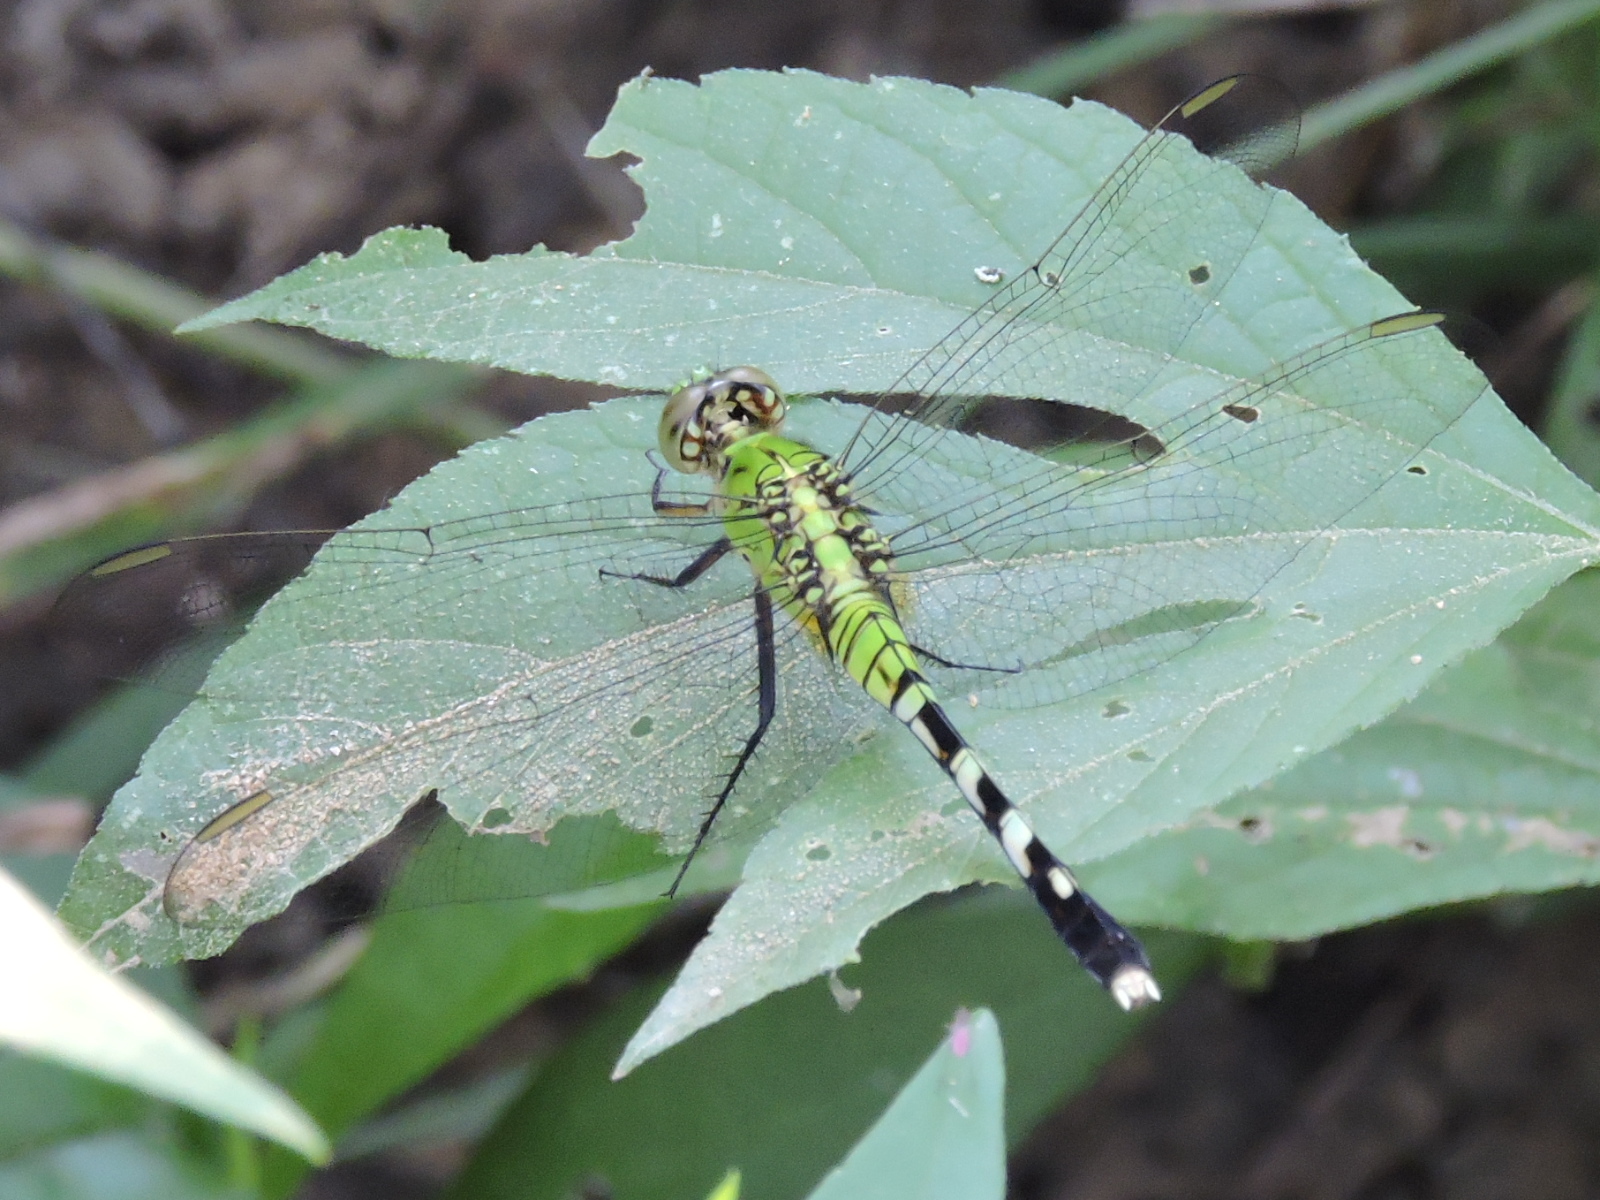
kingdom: Animalia
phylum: Arthropoda
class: Insecta
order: Odonata
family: Libellulidae
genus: Erythemis
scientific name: Erythemis simplicicollis
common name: Eastern pondhawk
